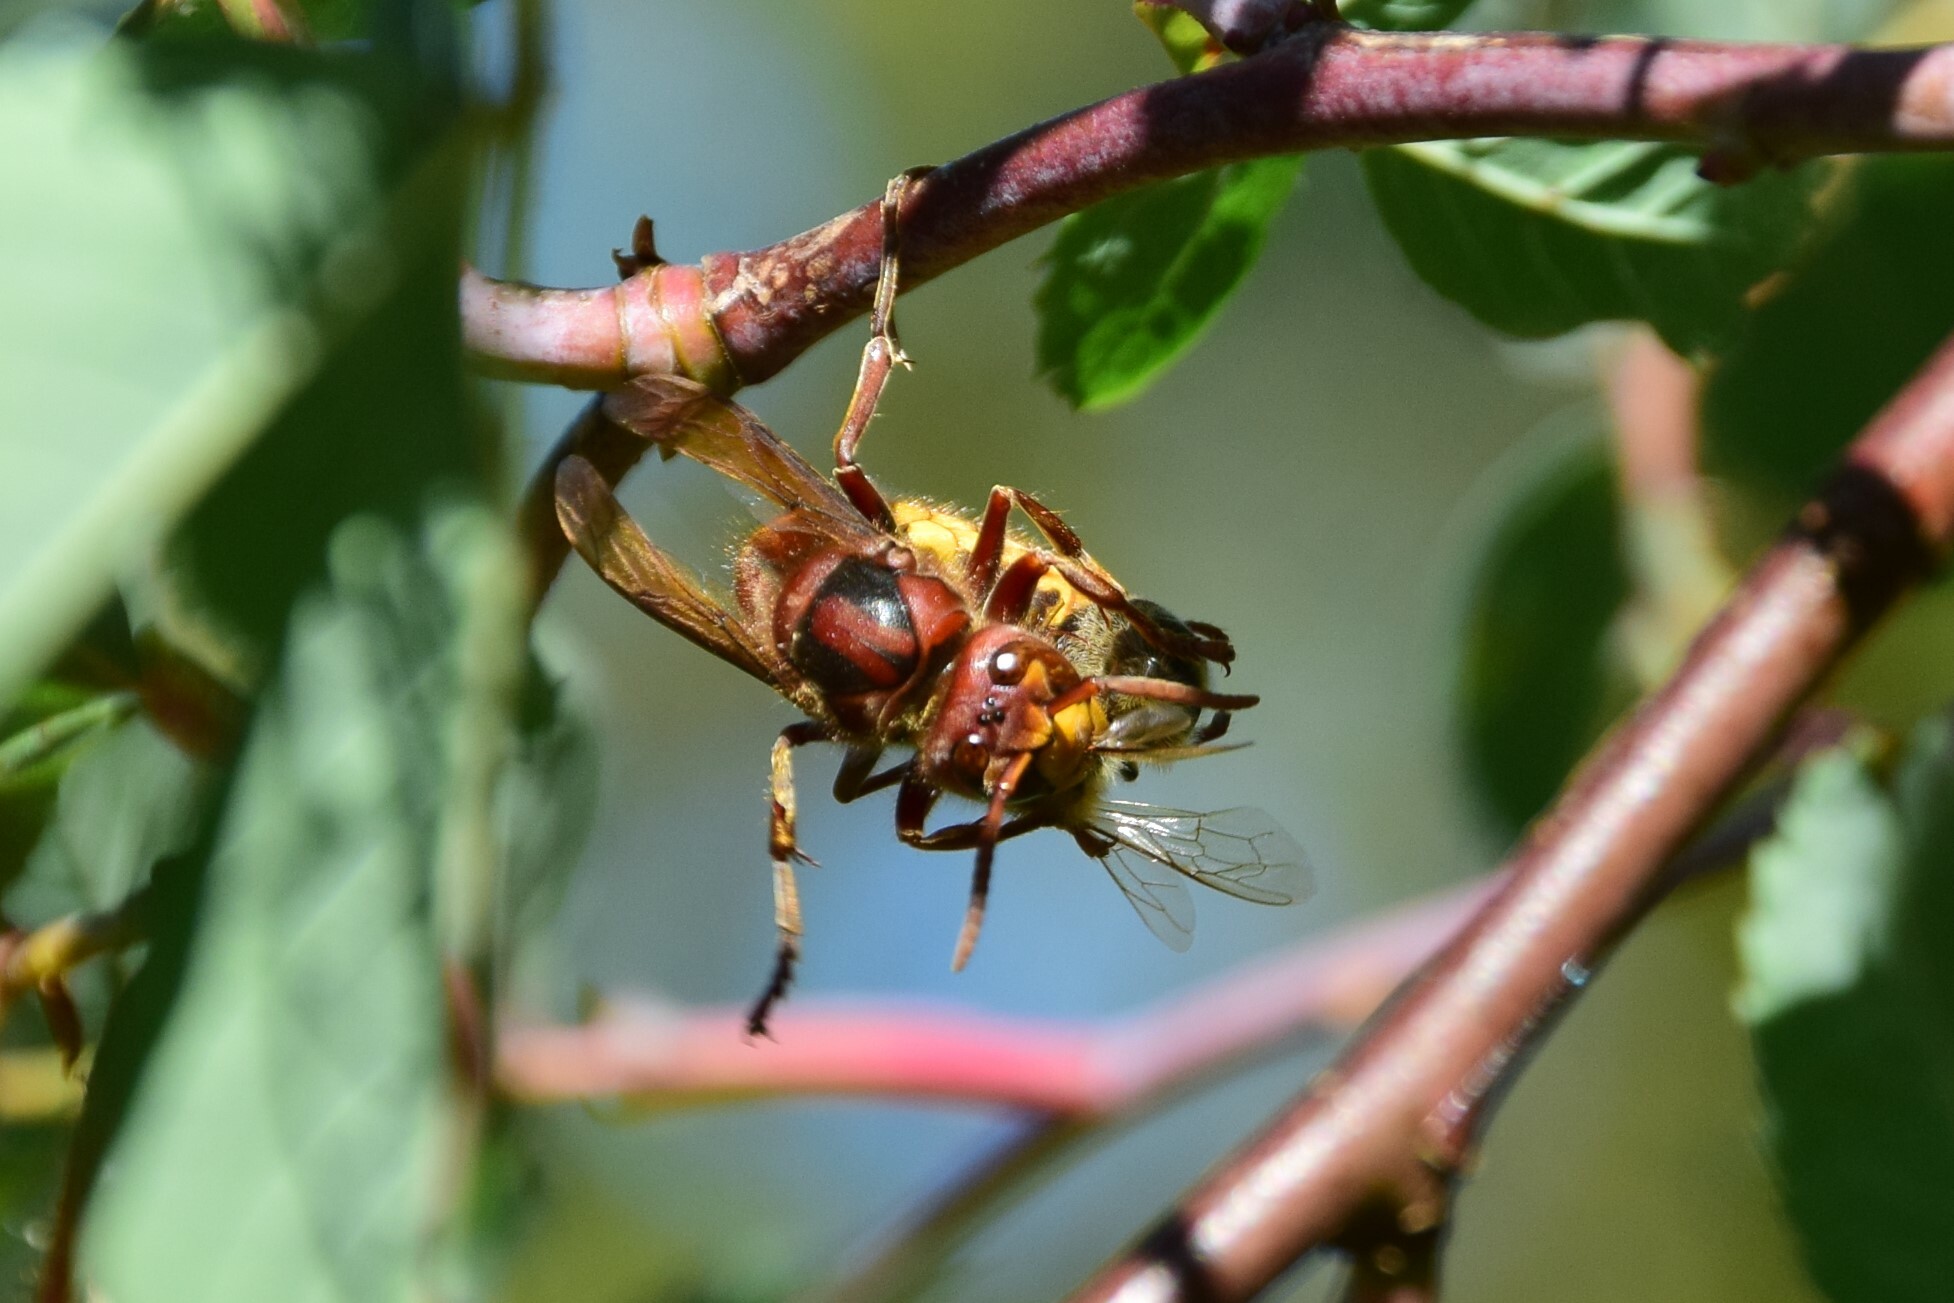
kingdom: Animalia
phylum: Arthropoda
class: Insecta
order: Hymenoptera
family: Vespidae
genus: Vespa
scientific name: Vespa crabro
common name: Hornet
